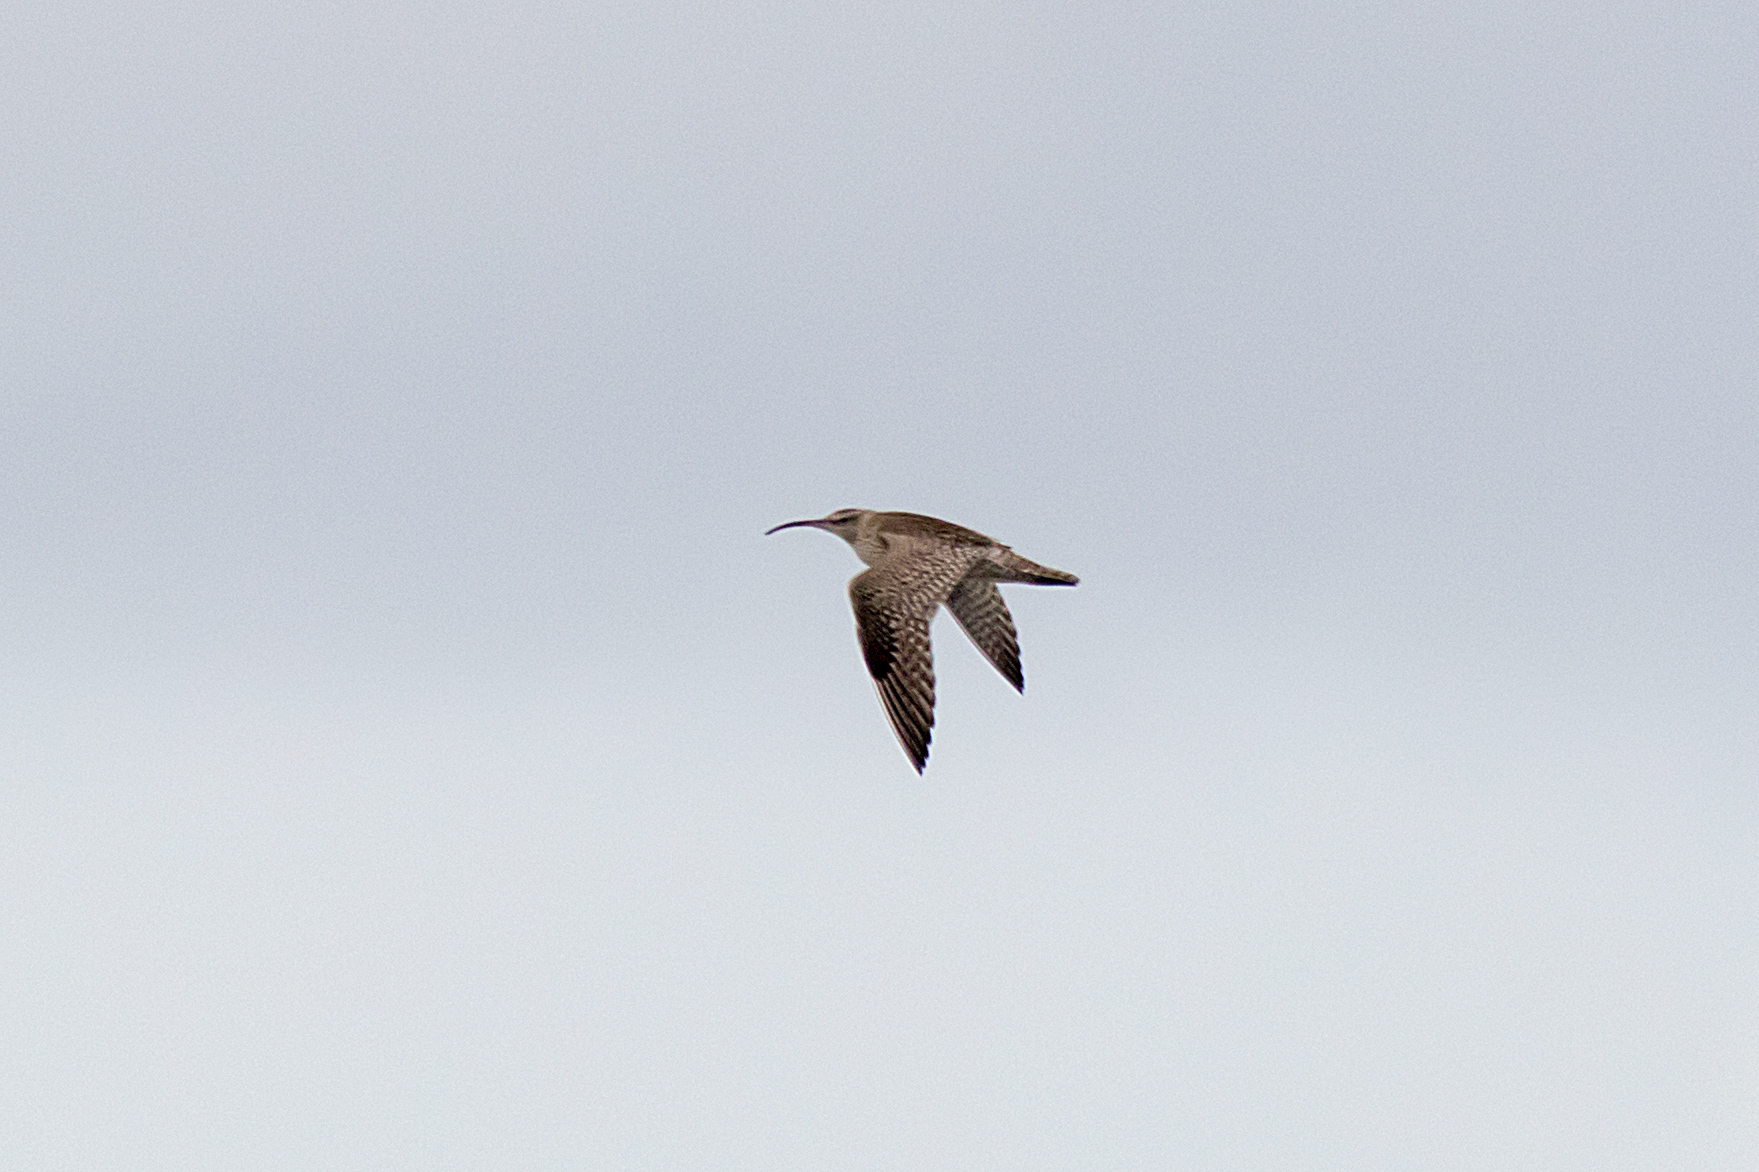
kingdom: Animalia
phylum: Chordata
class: Aves
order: Charadriiformes
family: Scolopacidae
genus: Numenius
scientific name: Numenius phaeopus
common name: Whimbrel
